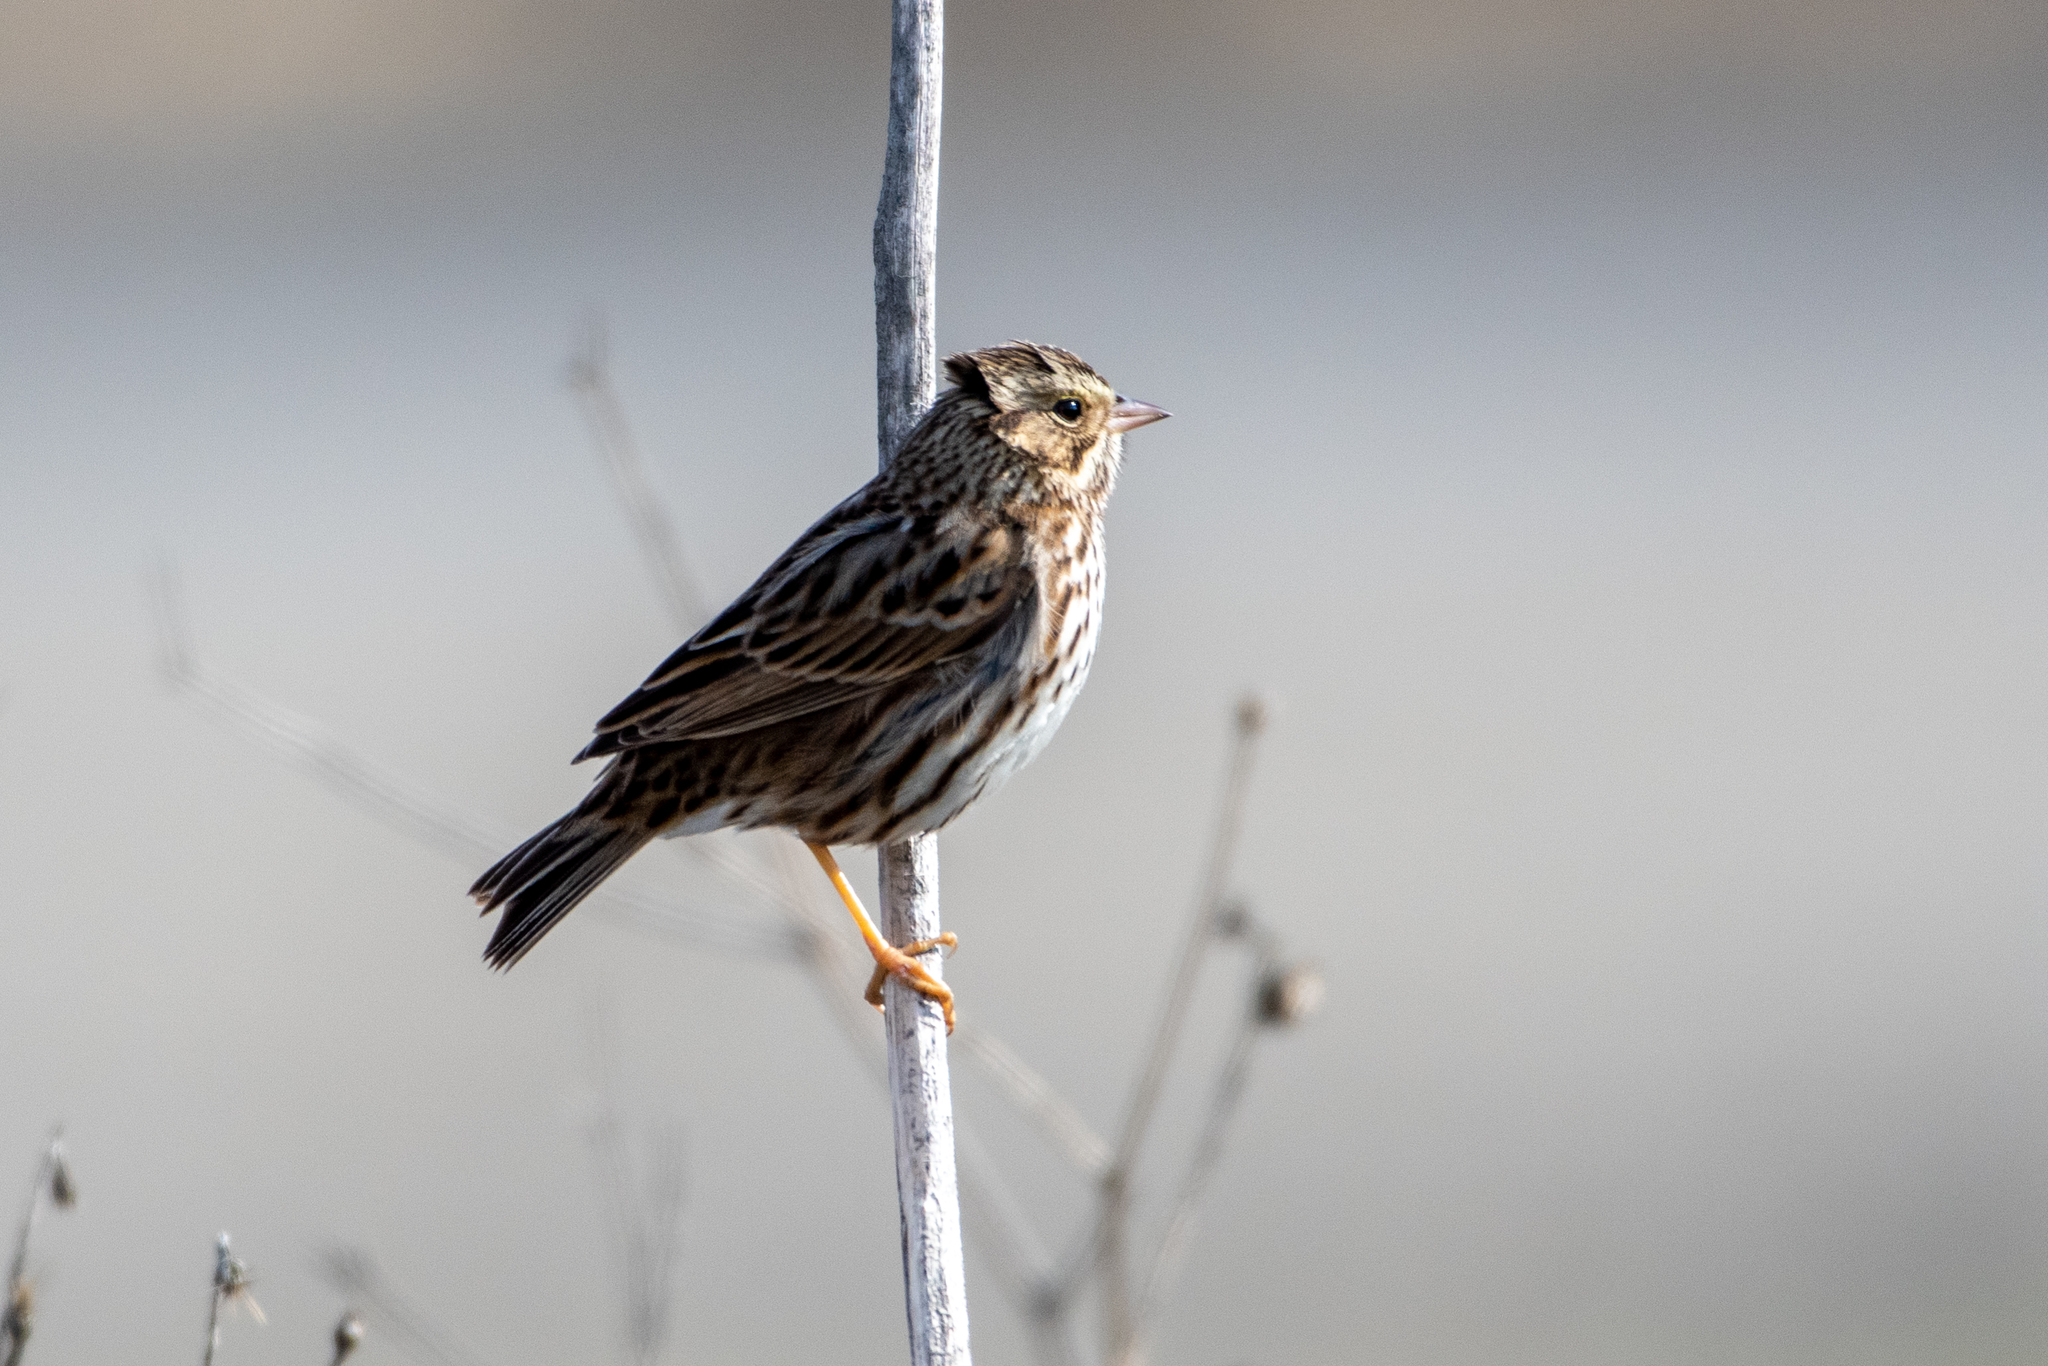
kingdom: Animalia
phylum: Chordata
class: Aves
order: Passeriformes
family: Passerellidae
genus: Passerculus
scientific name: Passerculus sandwichensis
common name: Savannah sparrow
